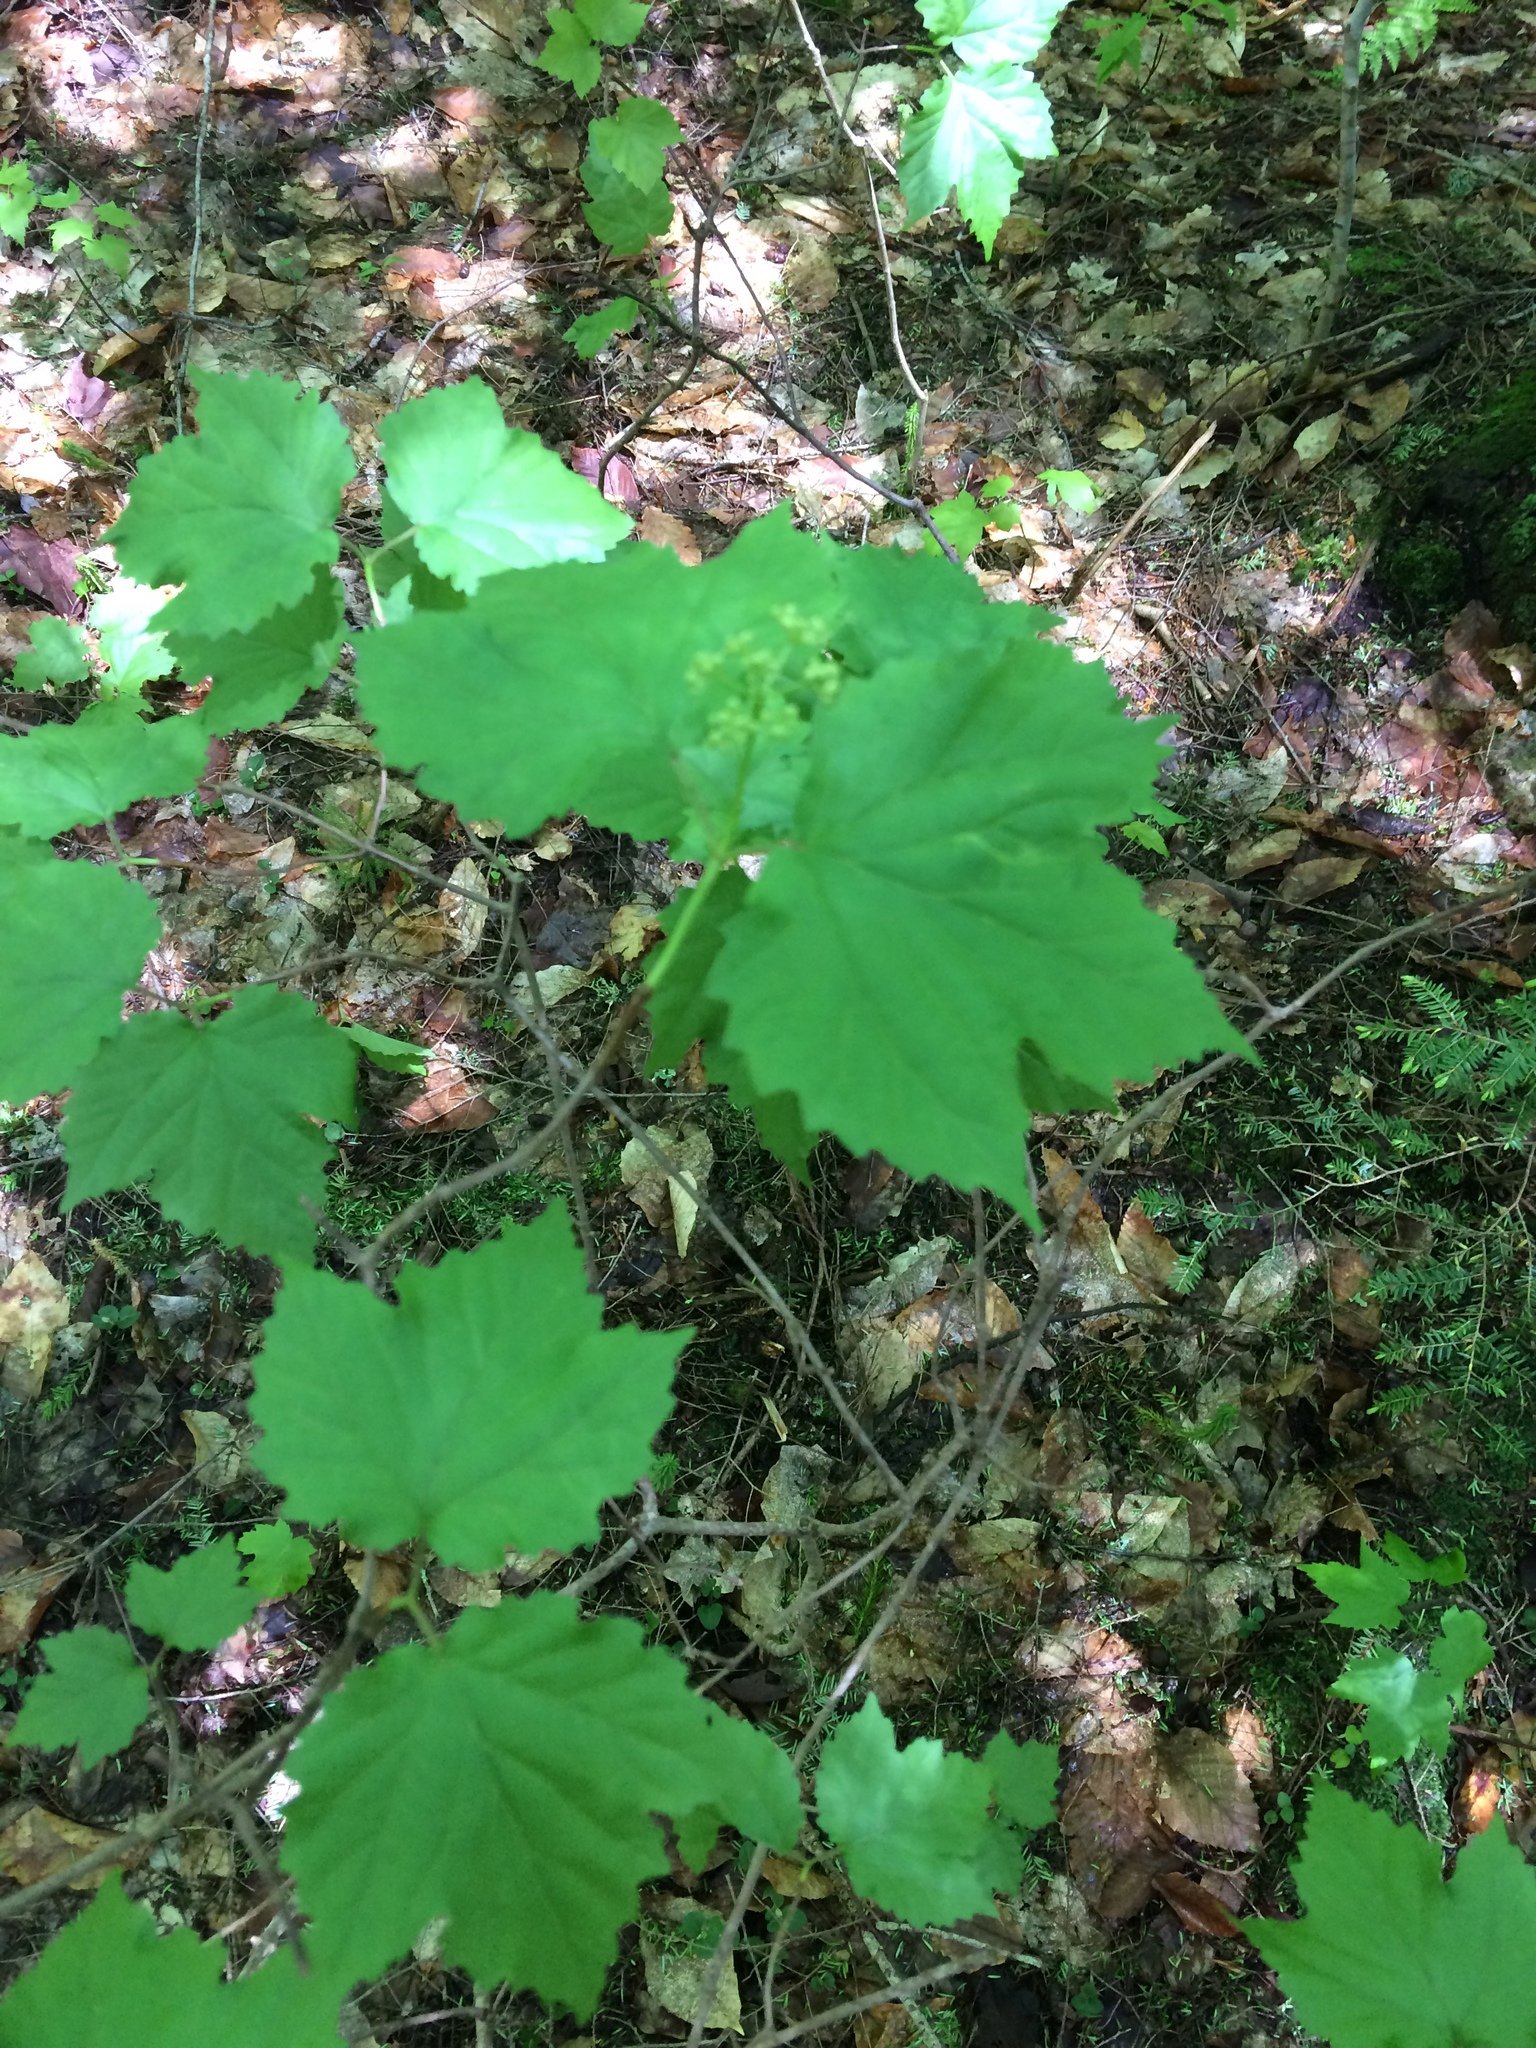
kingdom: Plantae
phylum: Tracheophyta
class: Magnoliopsida
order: Dipsacales
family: Viburnaceae
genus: Viburnum
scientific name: Viburnum acerifolium
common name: Dockmackie
